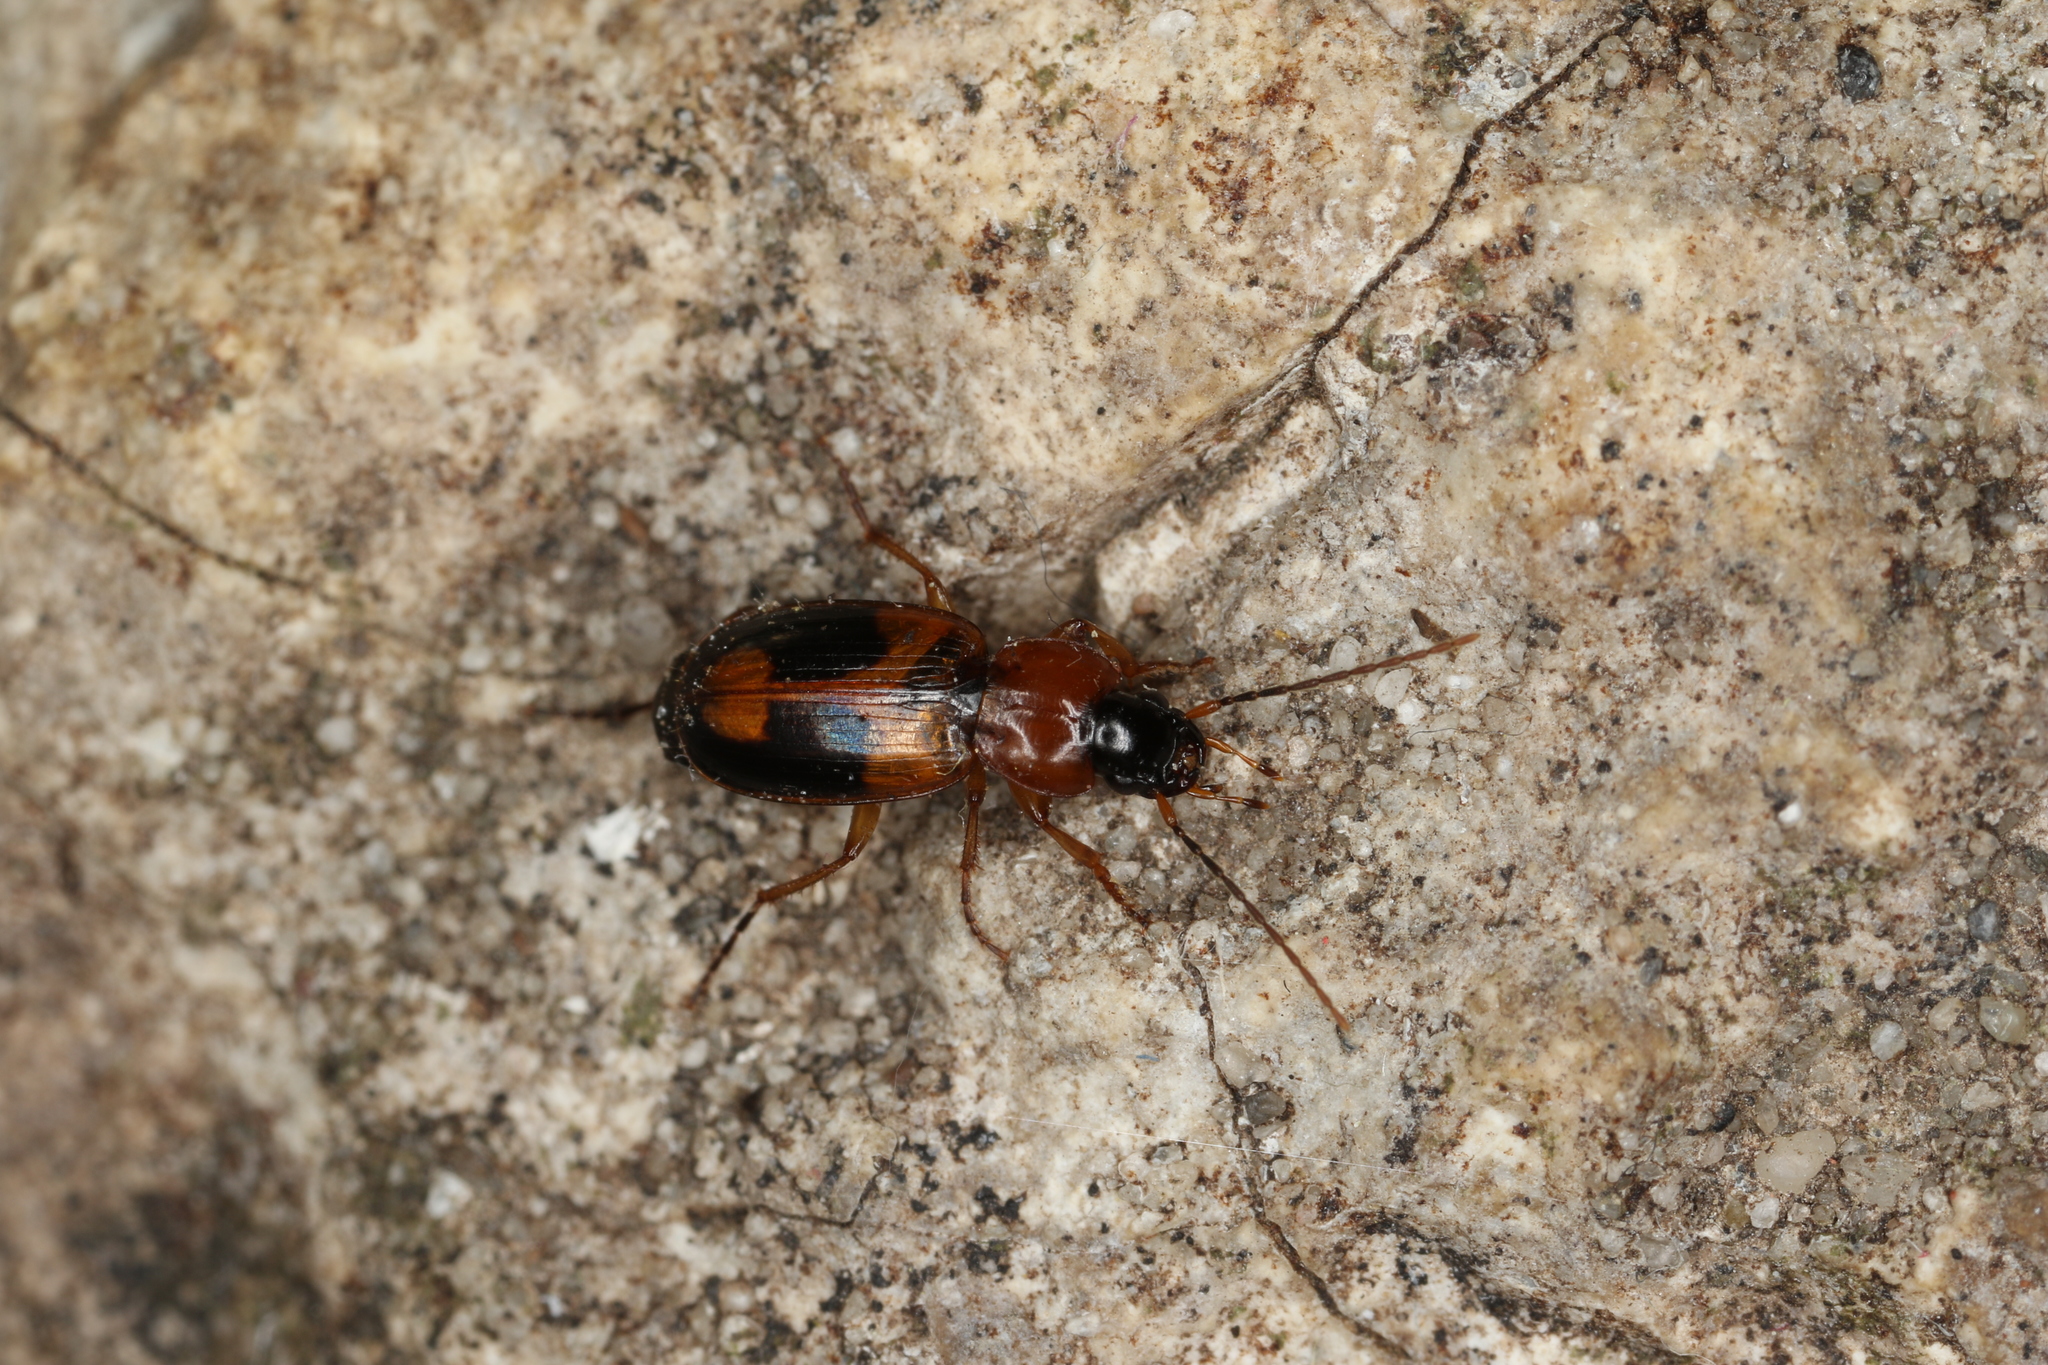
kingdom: Animalia
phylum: Arthropoda
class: Insecta
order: Coleoptera
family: Carabidae
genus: Badister
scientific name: Badister bullatus
